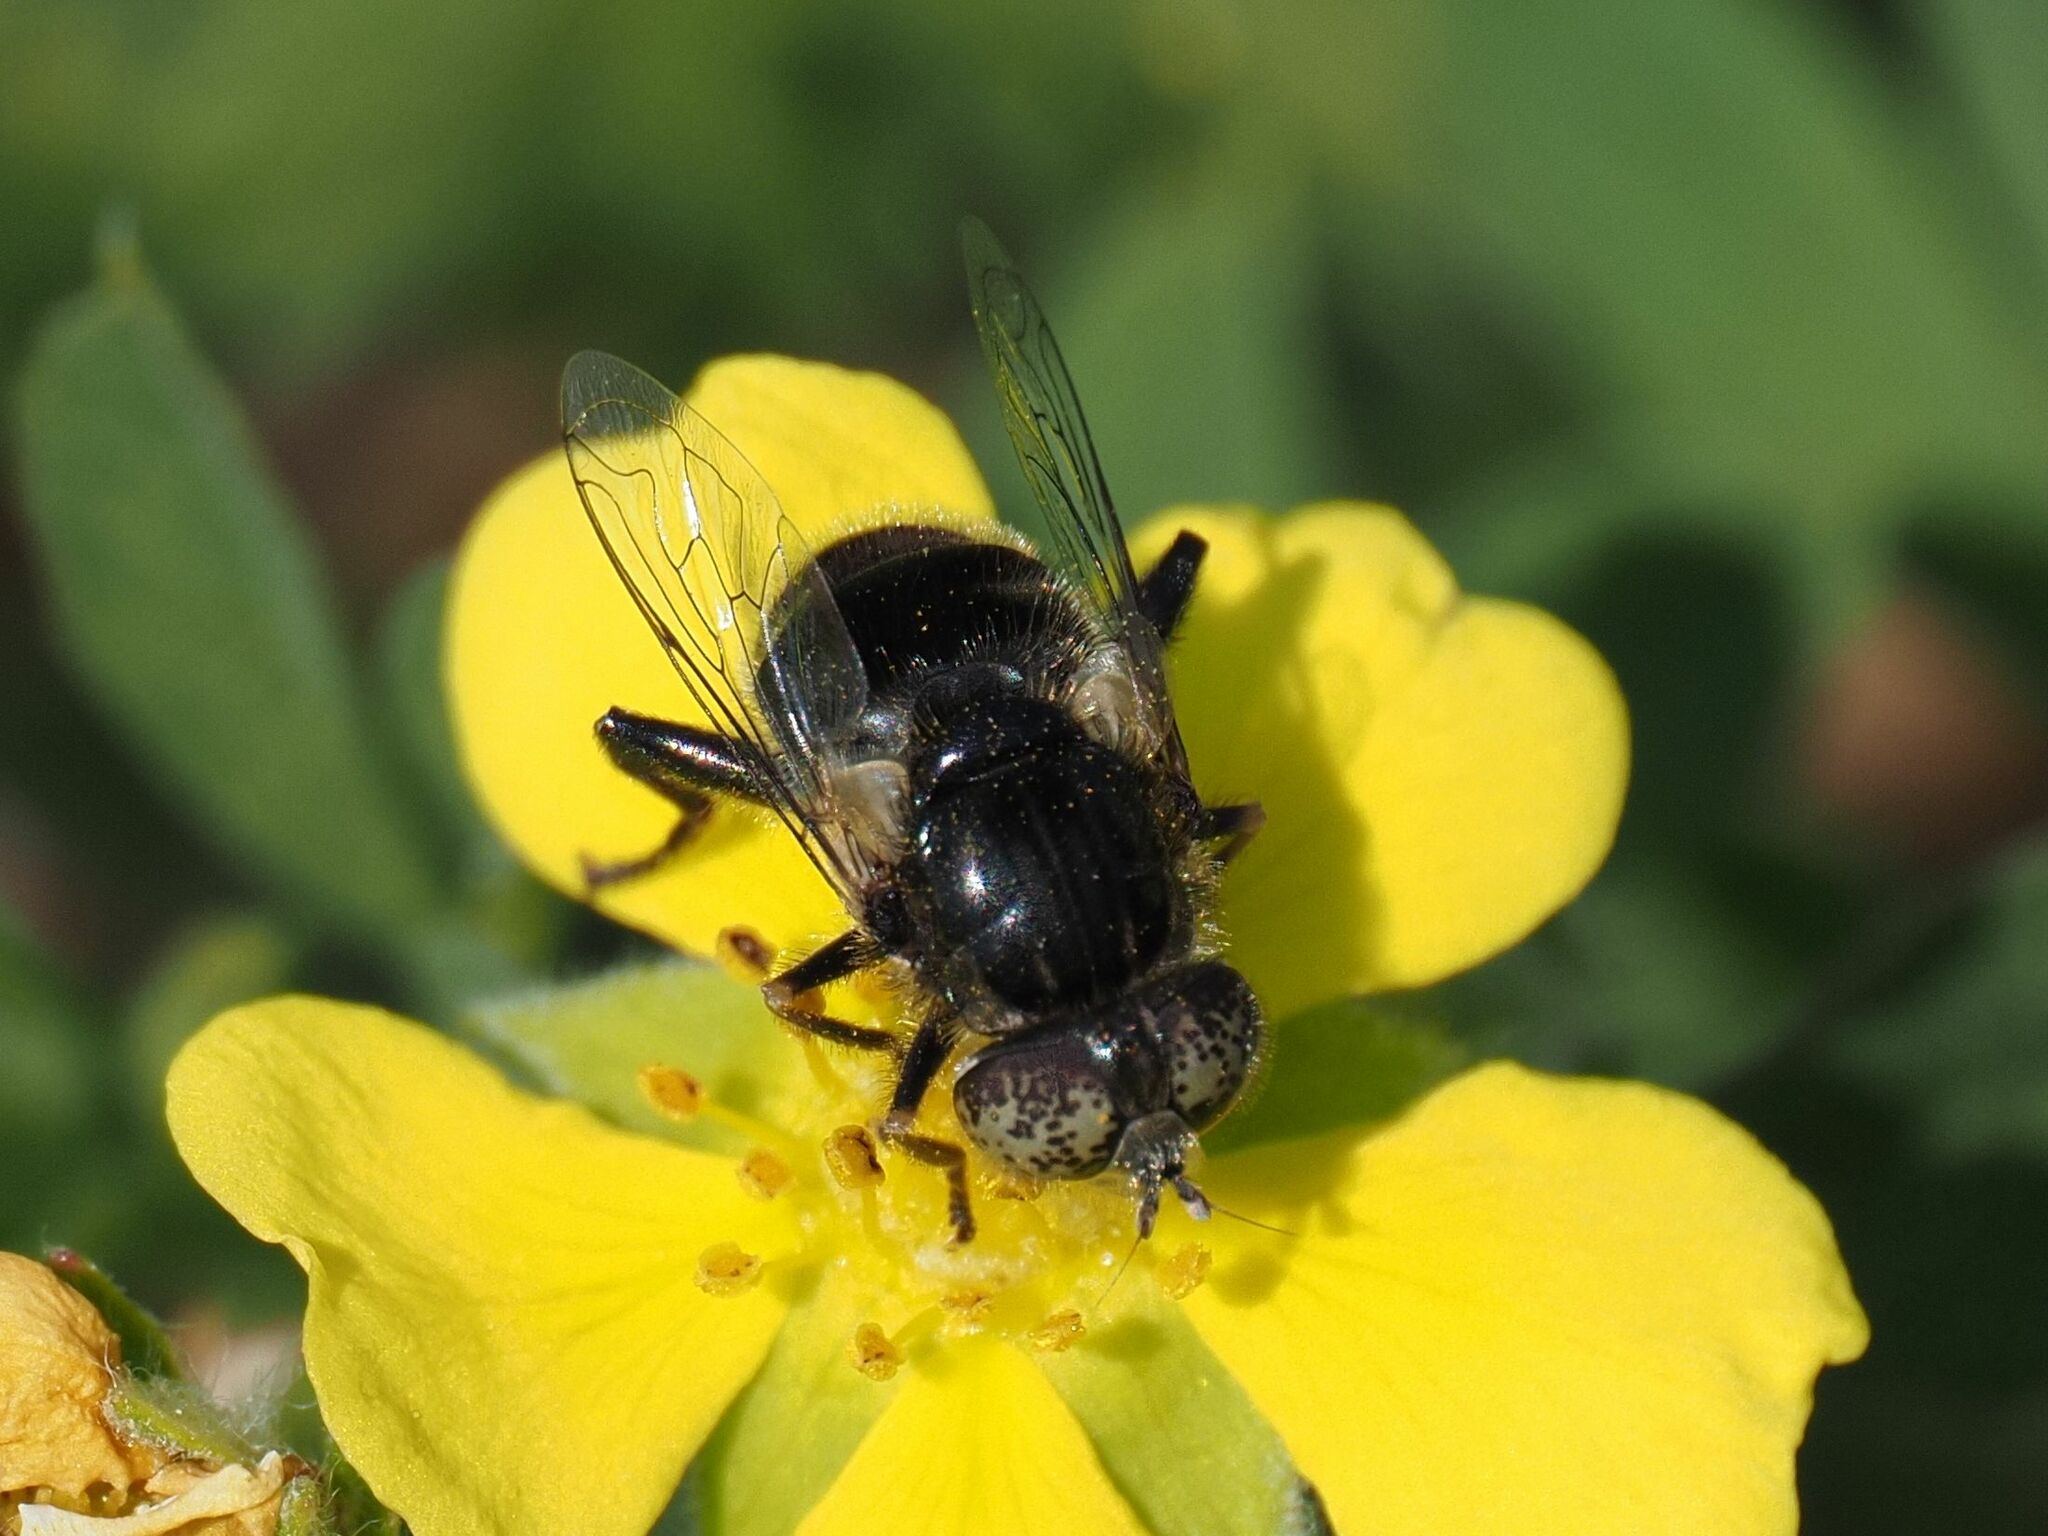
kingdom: Animalia
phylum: Arthropoda
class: Insecta
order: Diptera
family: Syrphidae
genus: Eristalinus
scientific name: Eristalinus sepulchralis
